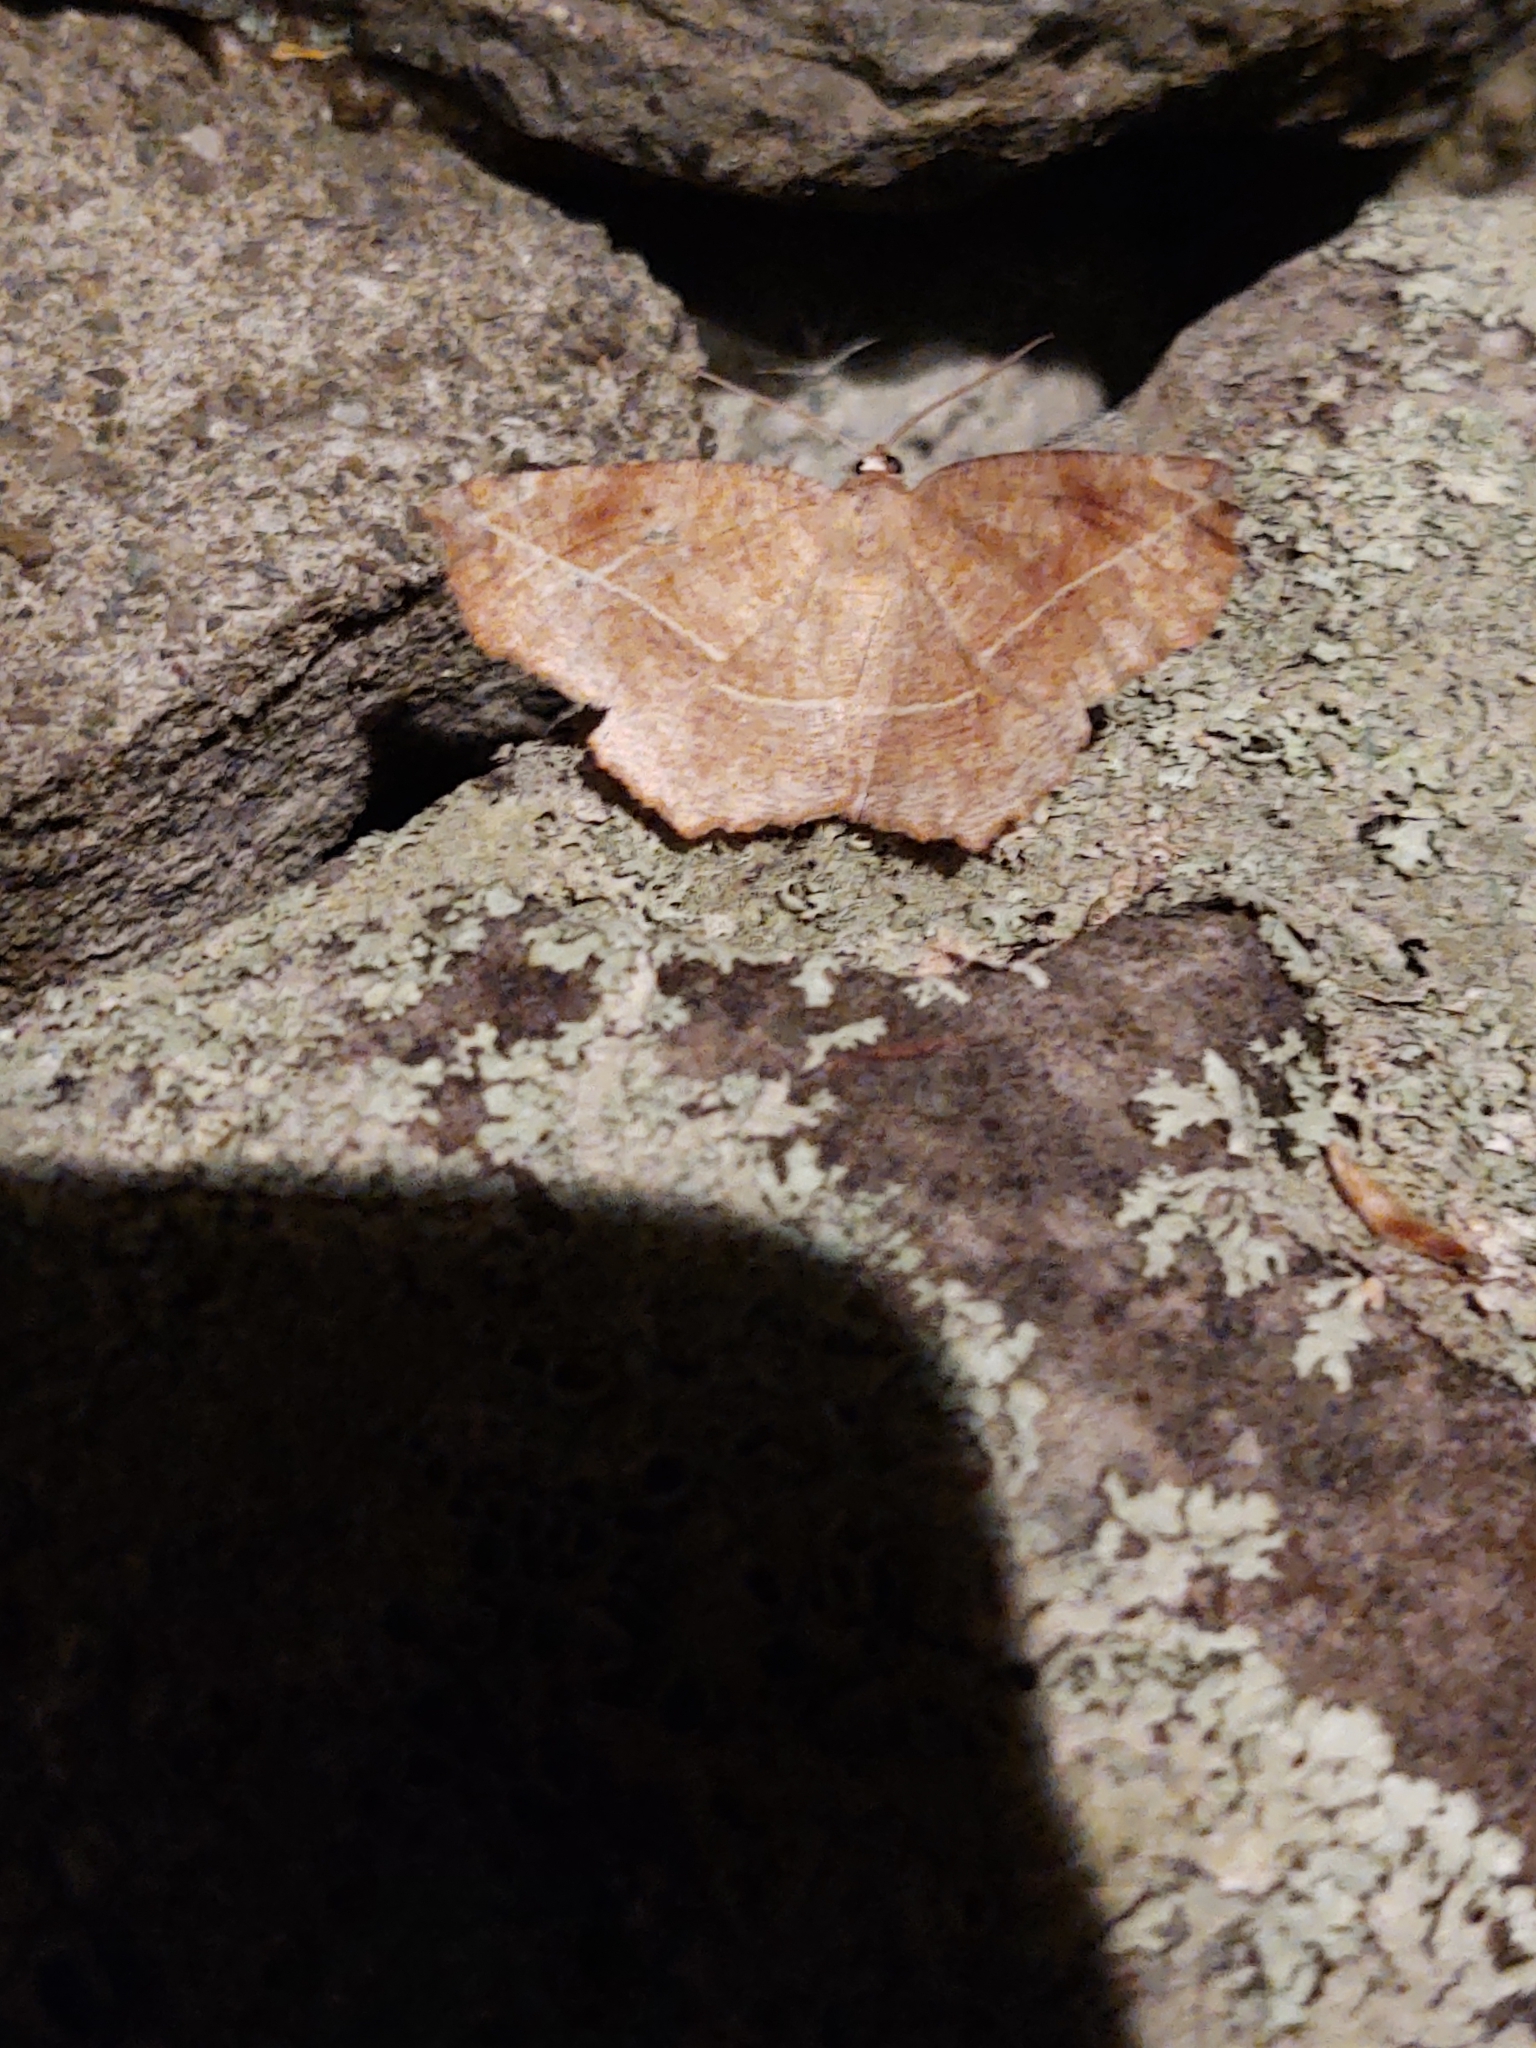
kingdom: Animalia
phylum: Arthropoda
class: Insecta
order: Lepidoptera
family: Geometridae
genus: Eutrapela
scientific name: Eutrapela clemataria
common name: Curved-toothed geometer
